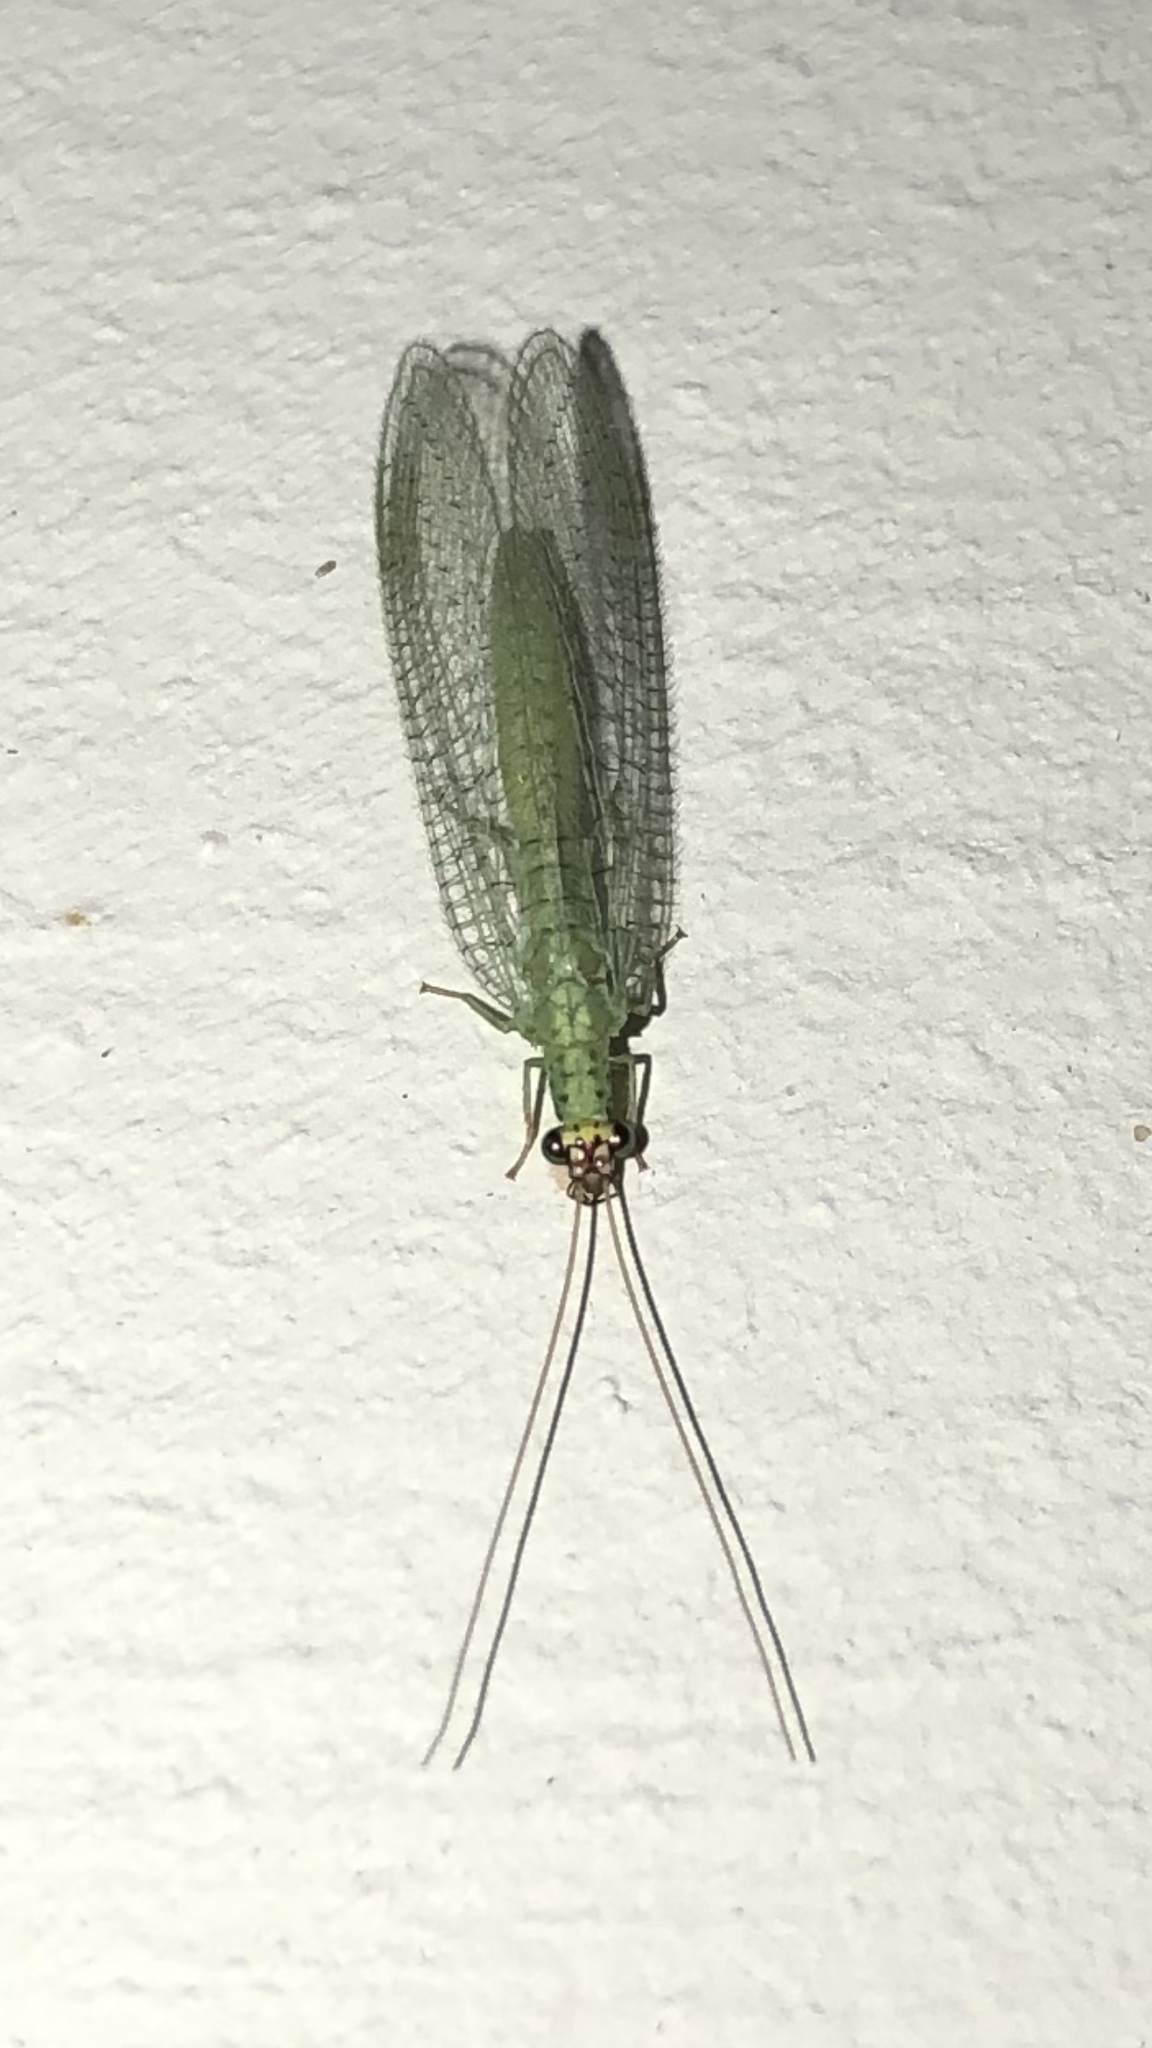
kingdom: Animalia
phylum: Arthropoda
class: Insecta
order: Neuroptera
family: Chrysopidae
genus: Chrysopa
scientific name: Chrysopa oculata
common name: Golden-eyed lacewing
